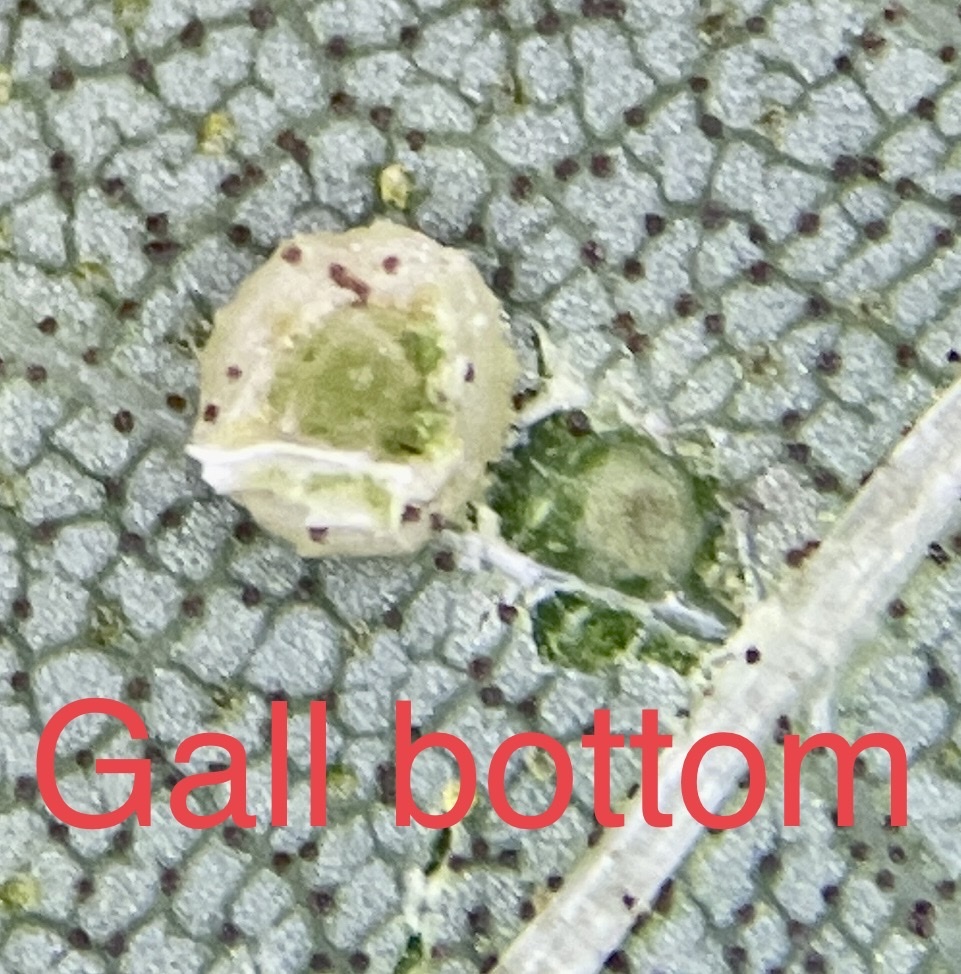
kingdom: Animalia
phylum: Arthropoda
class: Insecta
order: Diptera
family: Cecidomyiidae
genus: Caryomyia
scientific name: Caryomyia tuberculata
